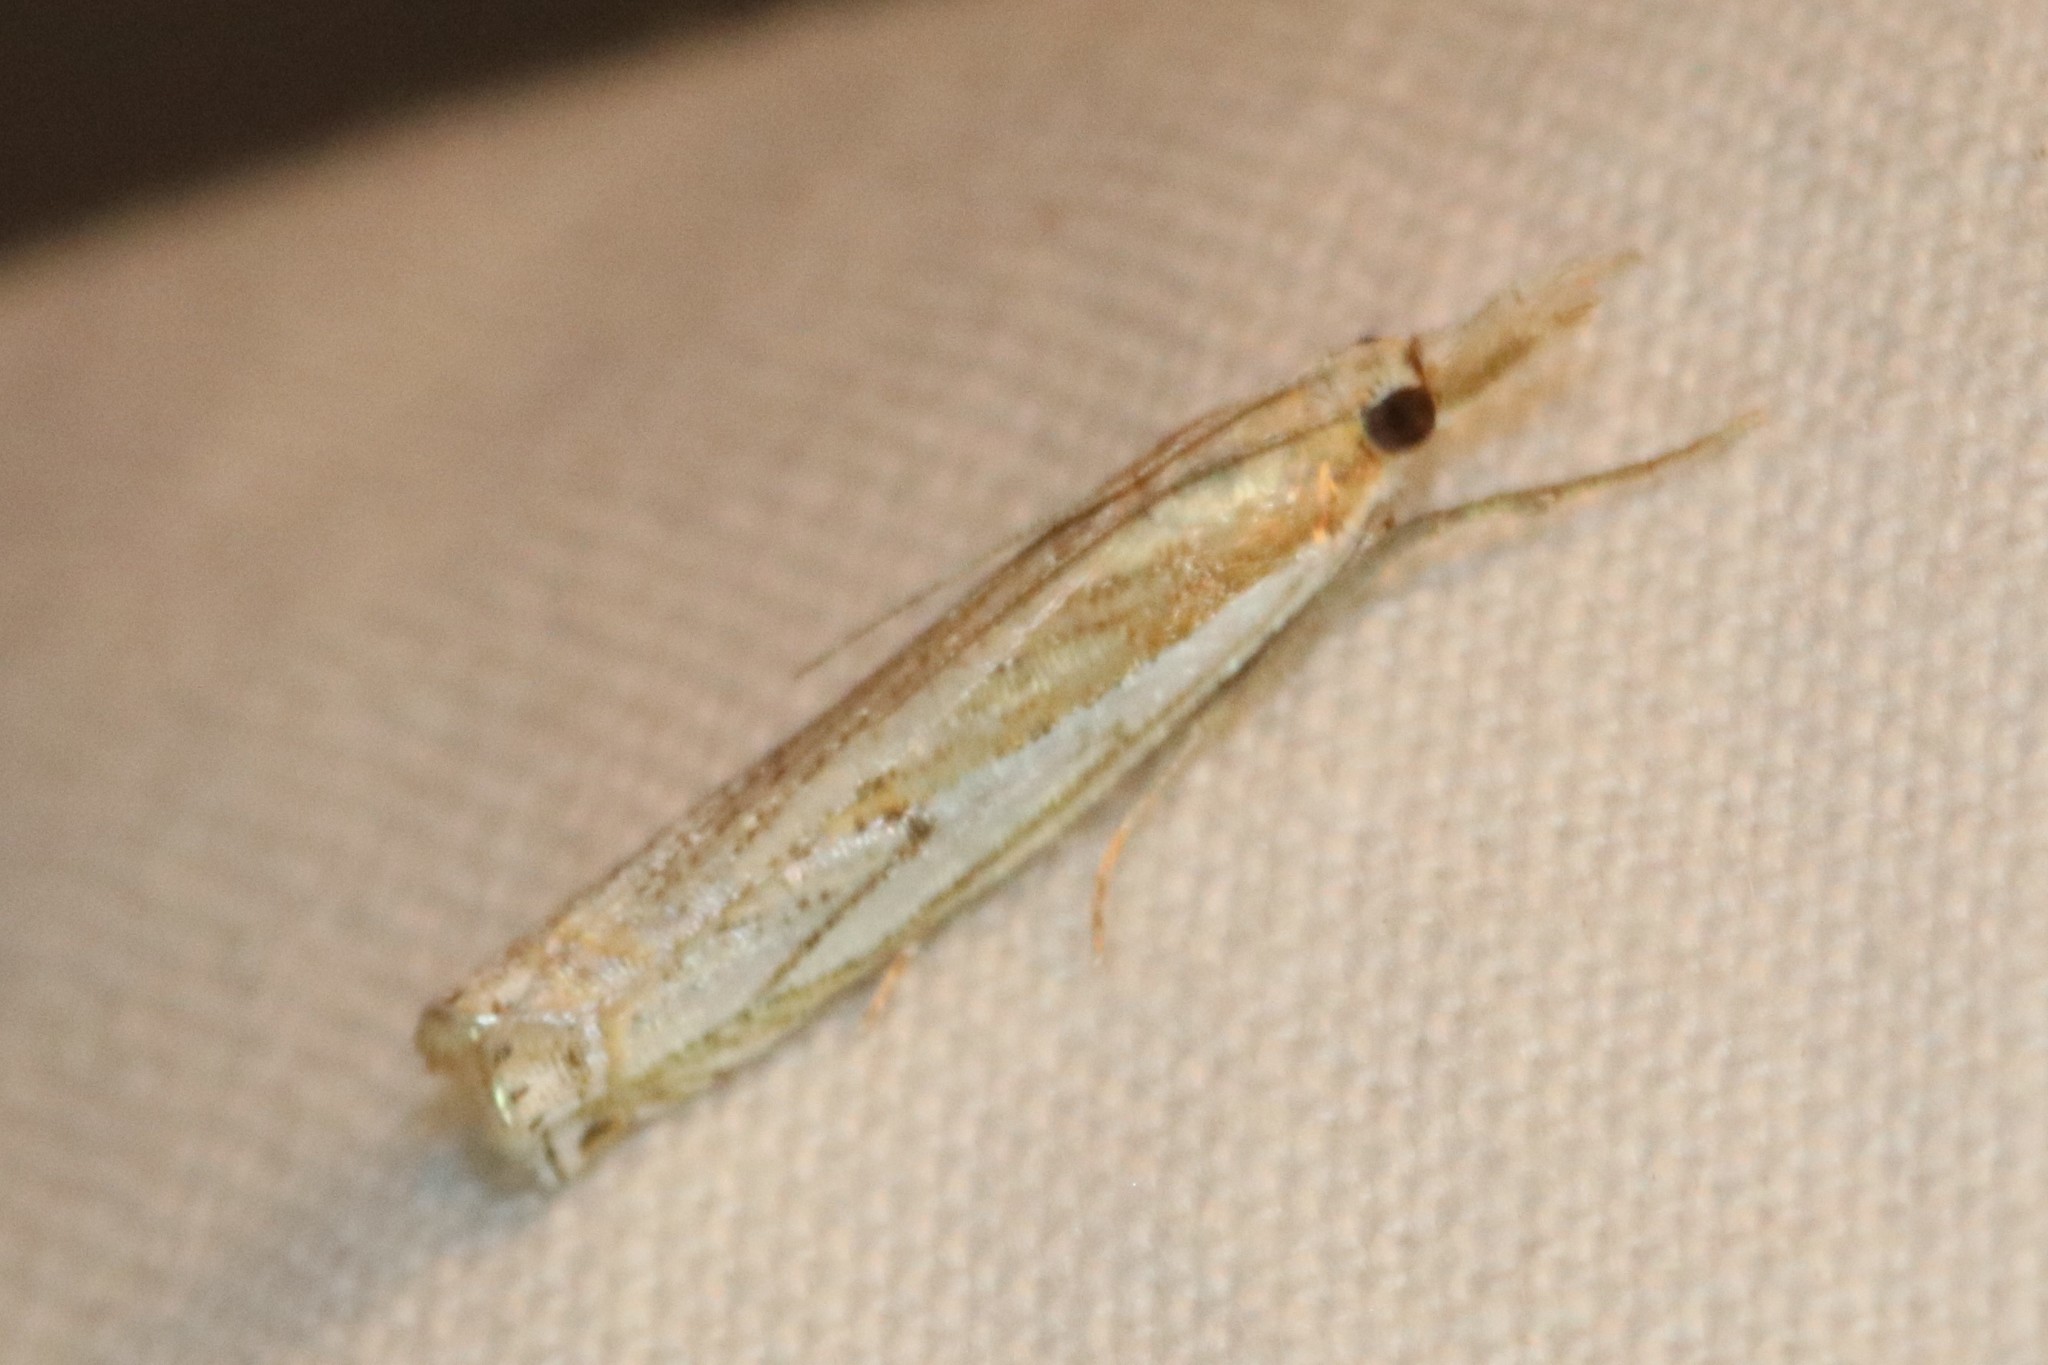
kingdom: Animalia
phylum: Arthropoda
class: Insecta
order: Lepidoptera
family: Crambidae
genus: Crambus
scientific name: Crambus saltuellus
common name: Pasture grass-veneer
